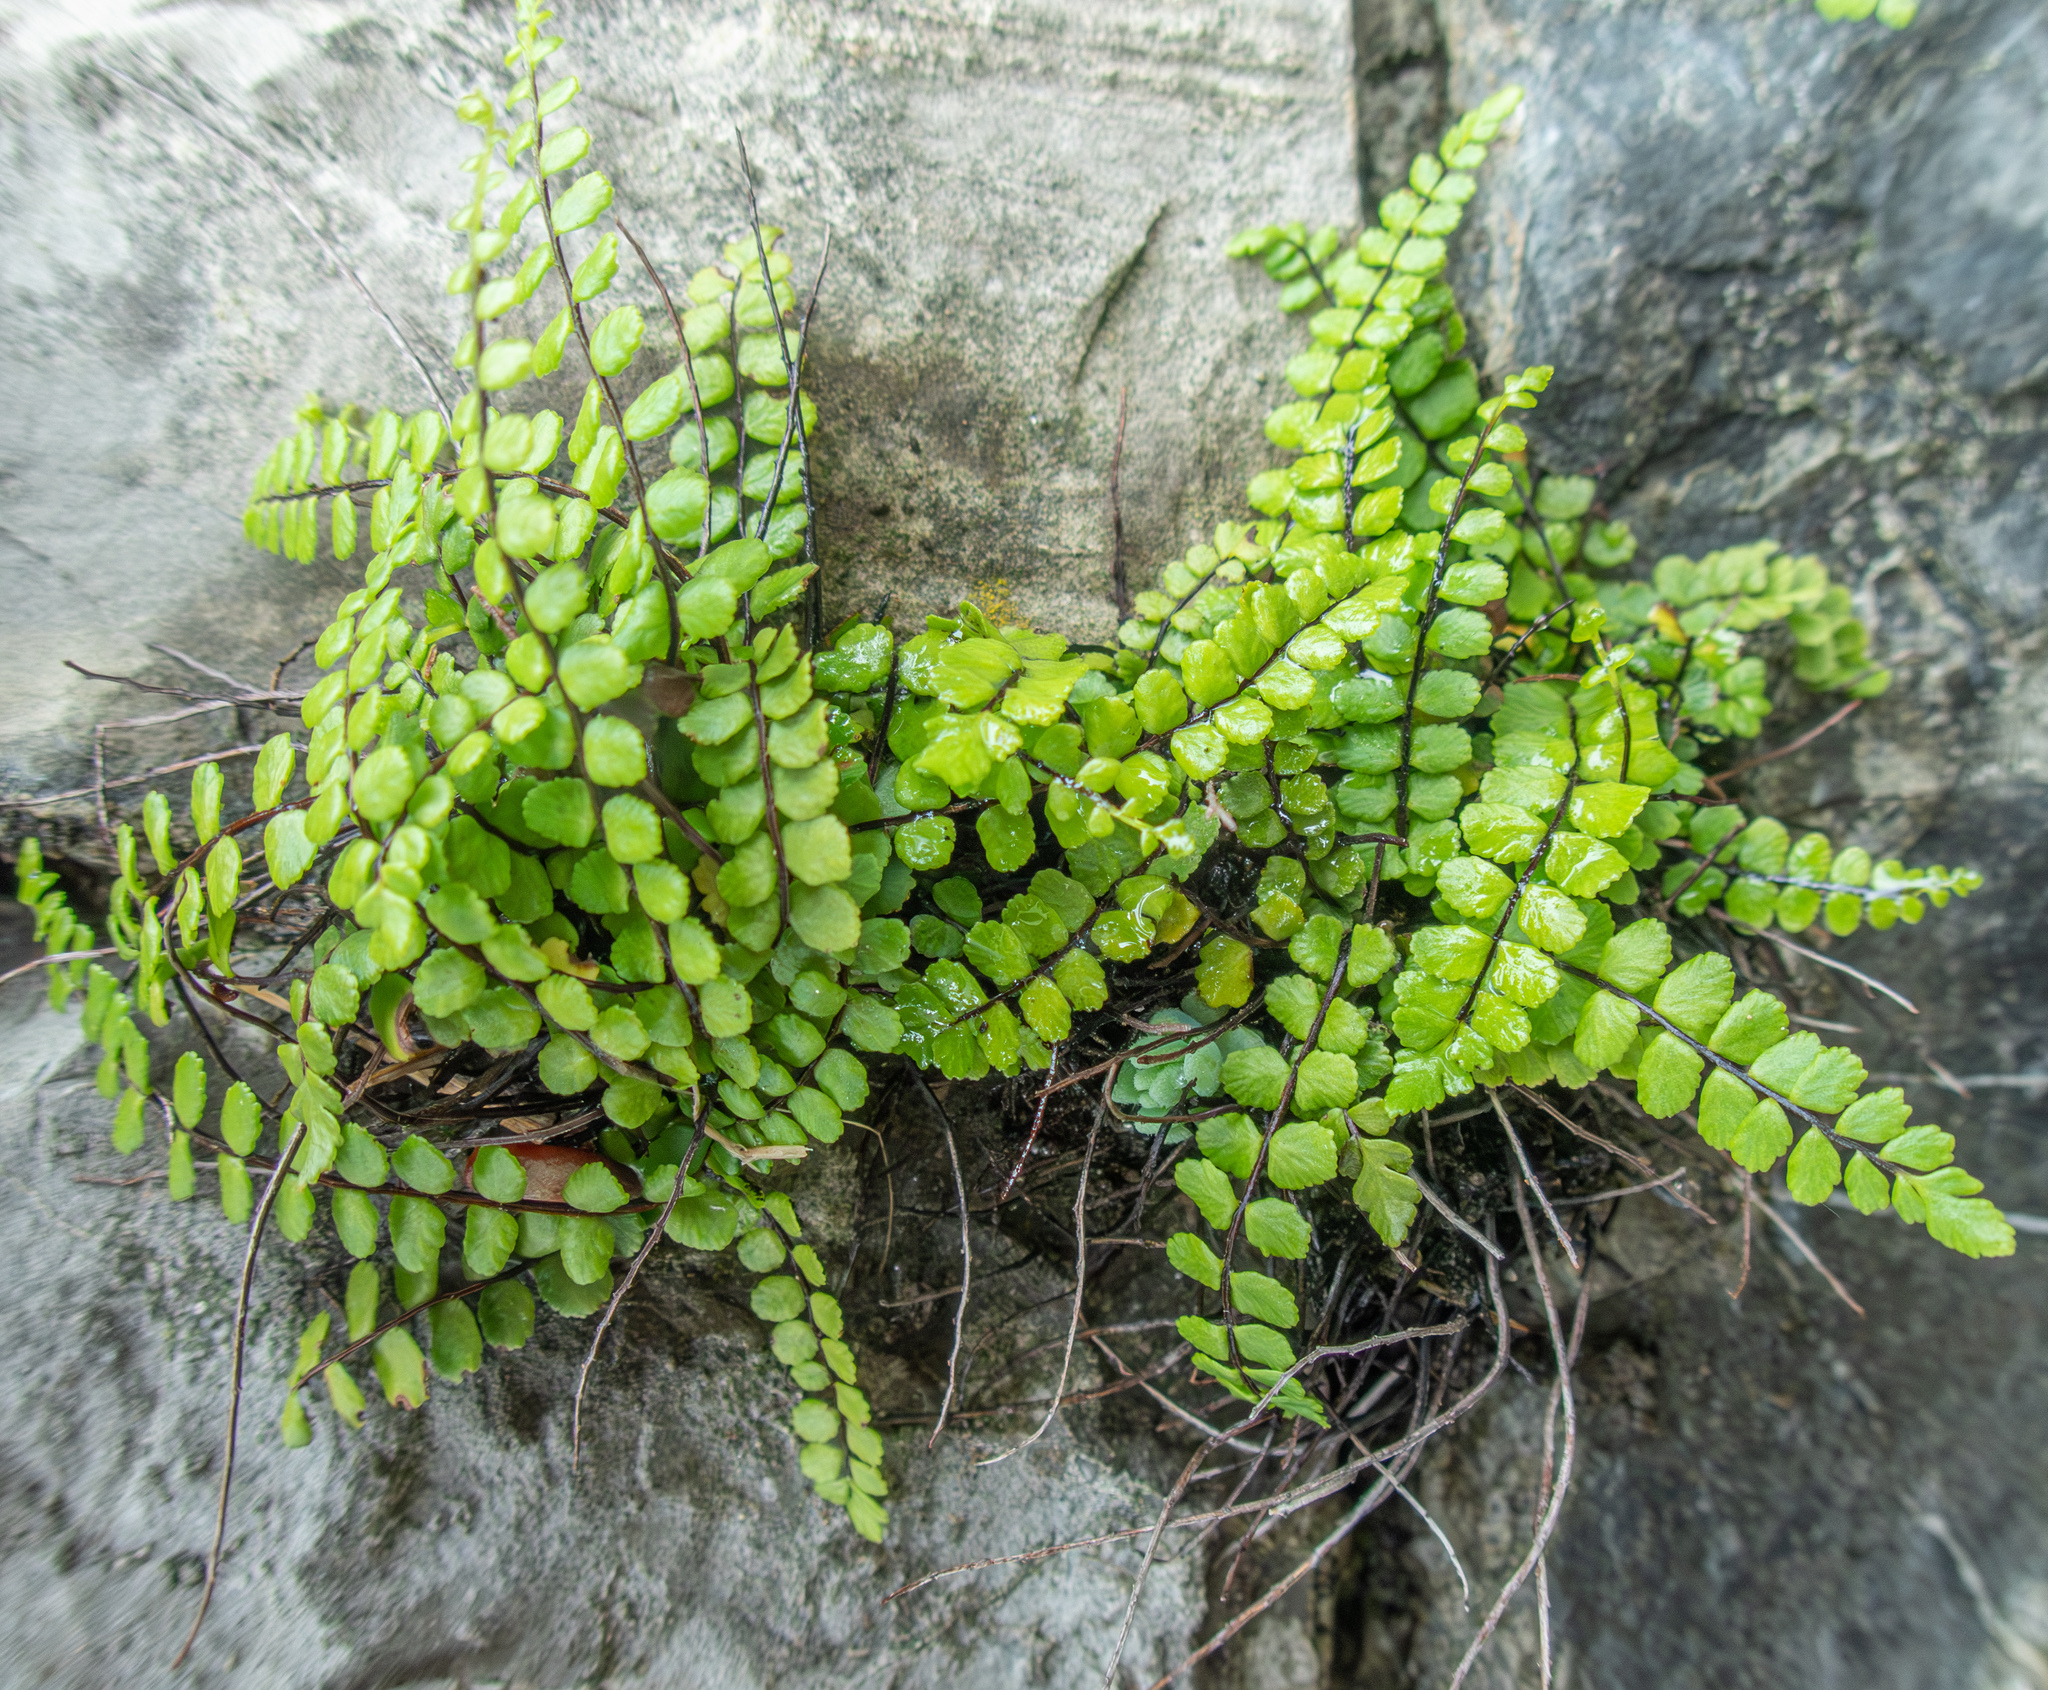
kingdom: Plantae
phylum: Tracheophyta
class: Polypodiopsida
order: Polypodiales
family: Aspleniaceae
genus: Asplenium
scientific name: Asplenium trichomanes
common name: Maidenhair spleenwort
